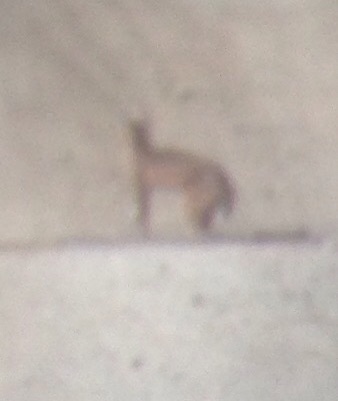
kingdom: Animalia
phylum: Chordata
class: Mammalia
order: Carnivora
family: Felidae
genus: Lynx
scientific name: Lynx rufus
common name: Bobcat
